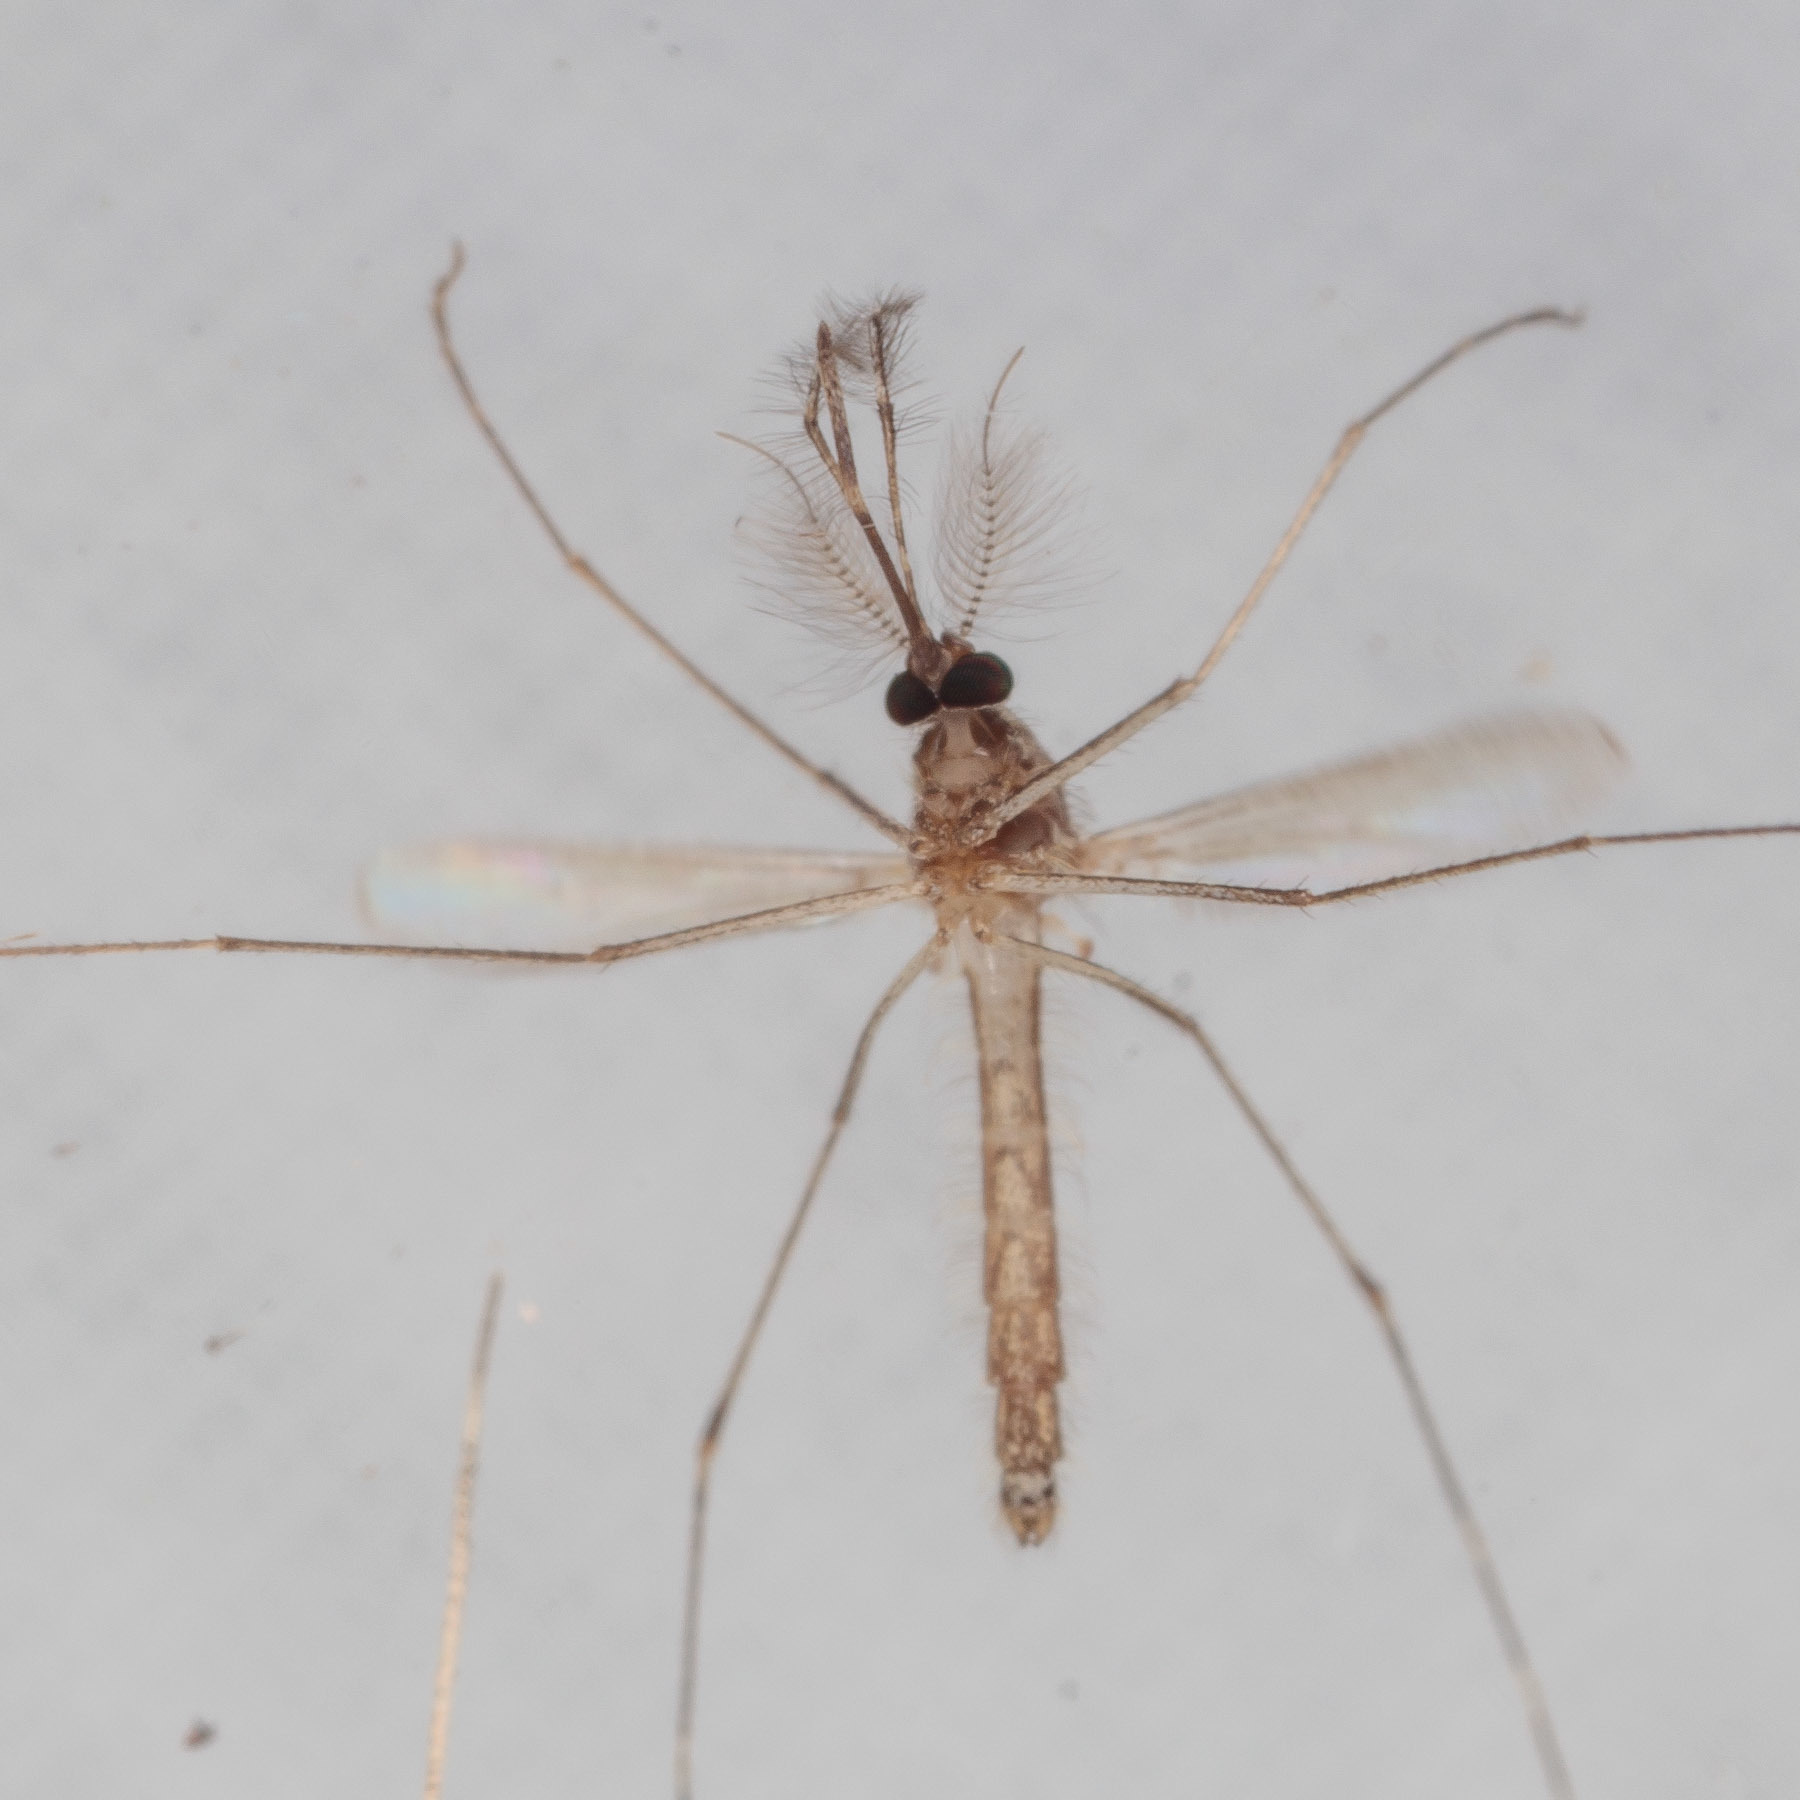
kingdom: Animalia
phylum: Arthropoda
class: Insecta
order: Diptera
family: Culicidae
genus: Culex
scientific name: Culex tarsalis
